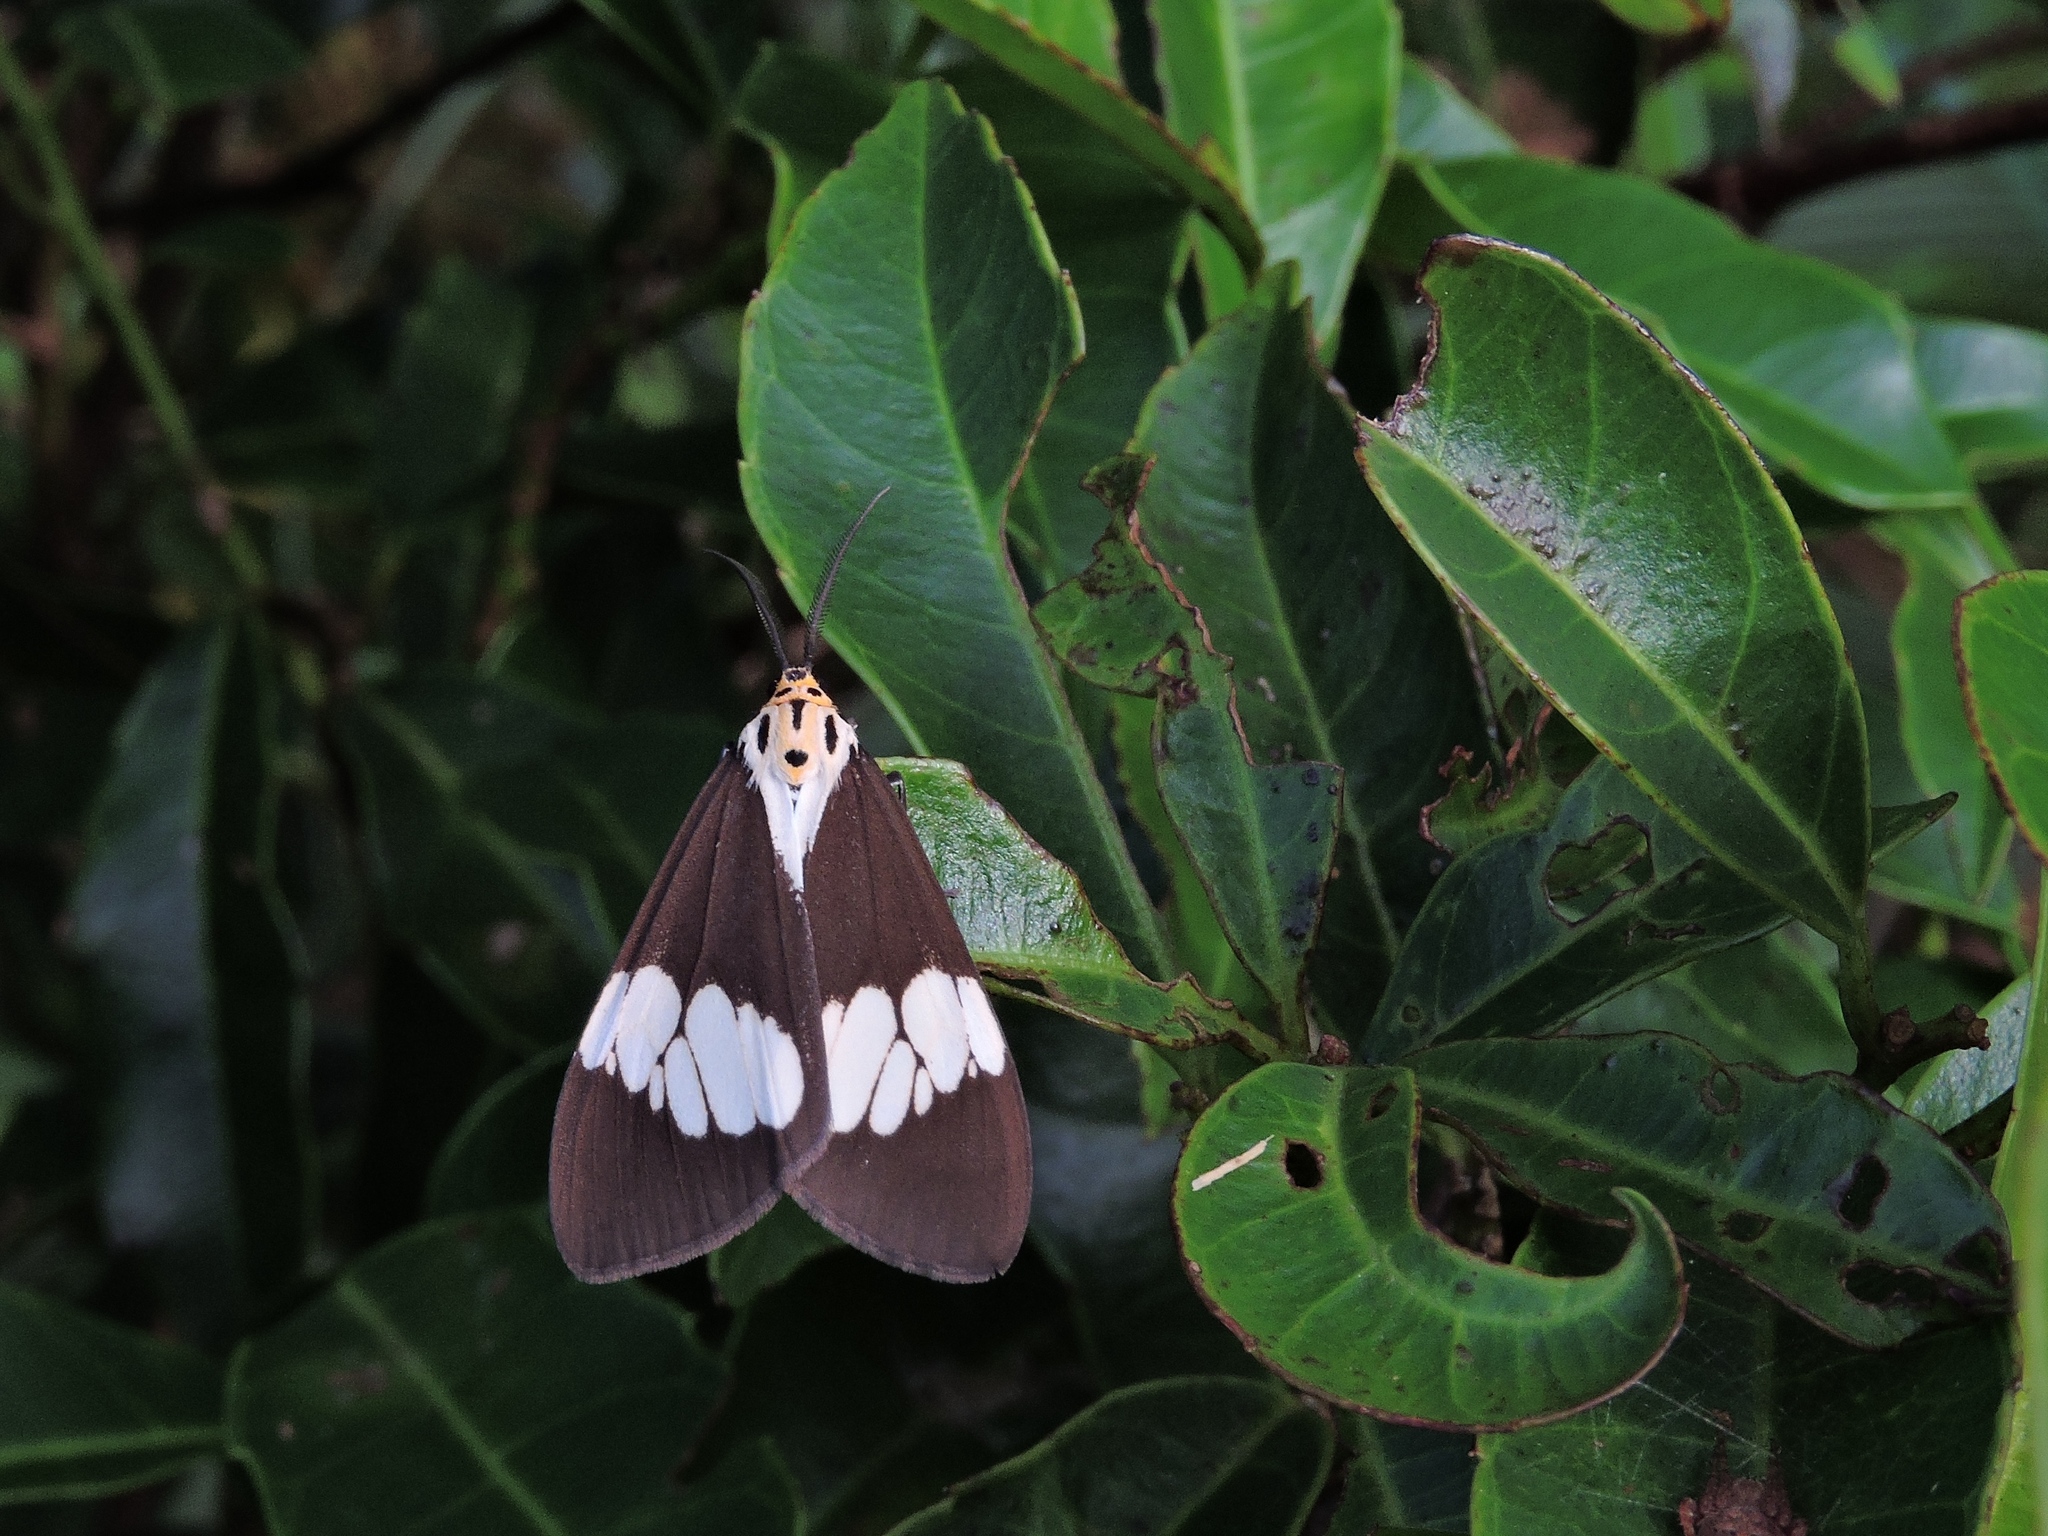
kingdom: Animalia
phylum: Arthropoda
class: Insecta
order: Lepidoptera
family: Erebidae
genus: Nyctemera
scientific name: Nyctemera lacticinia
